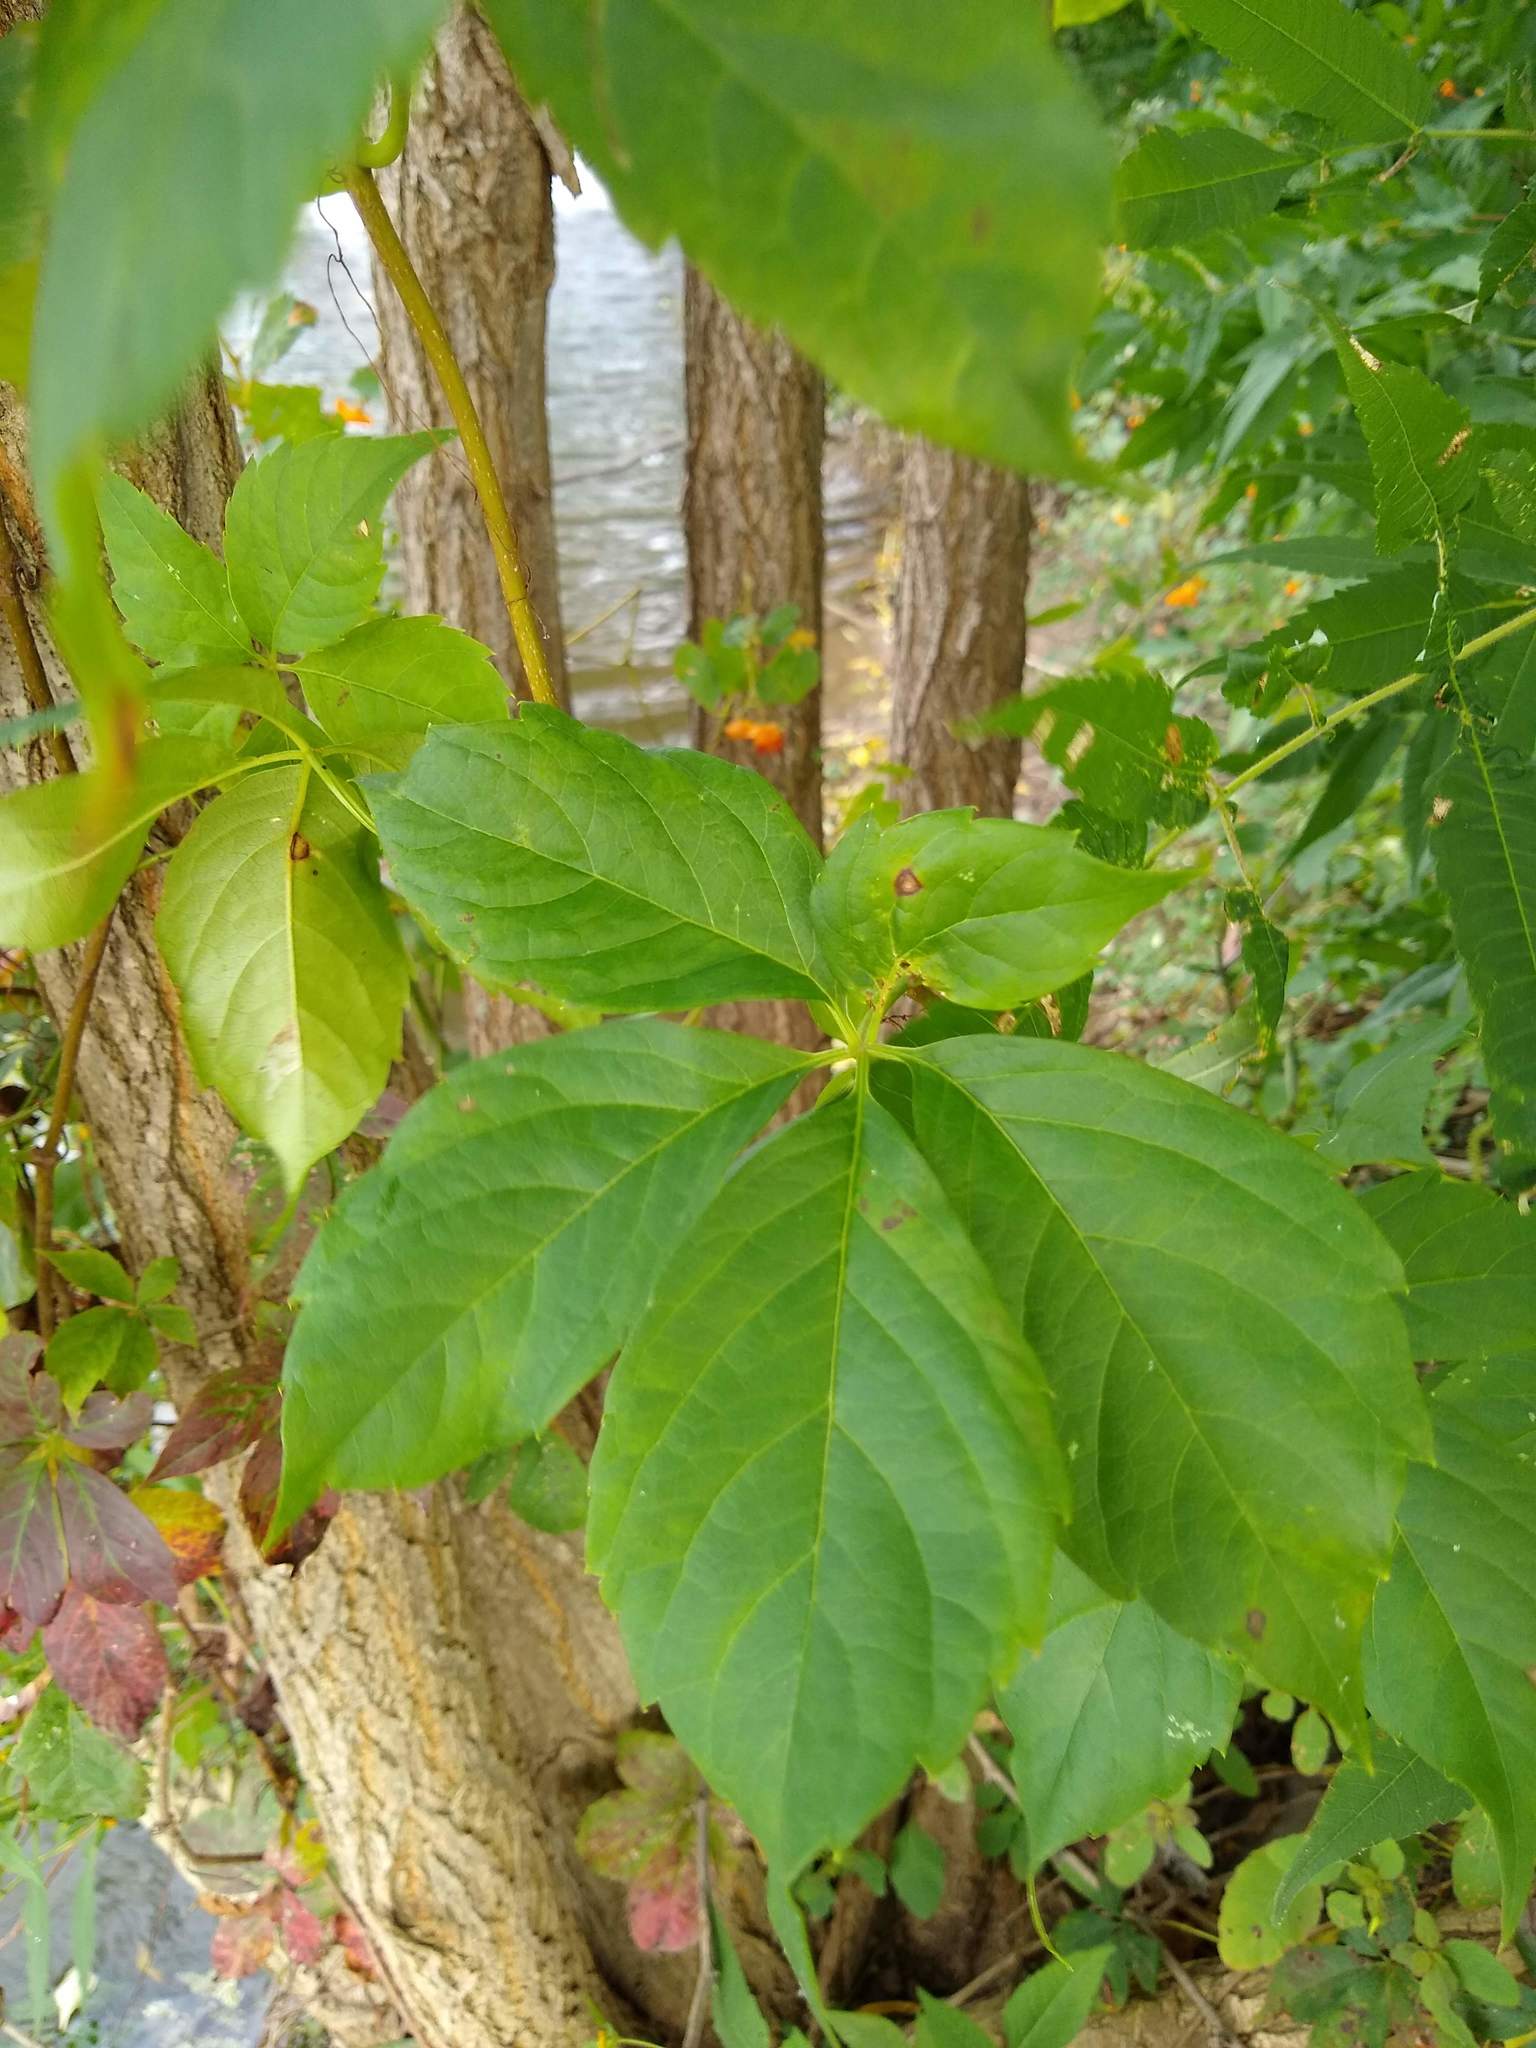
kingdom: Plantae
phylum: Tracheophyta
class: Magnoliopsida
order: Vitales
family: Vitaceae
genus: Parthenocissus
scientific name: Parthenocissus quinquefolia
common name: Virginia-creeper
